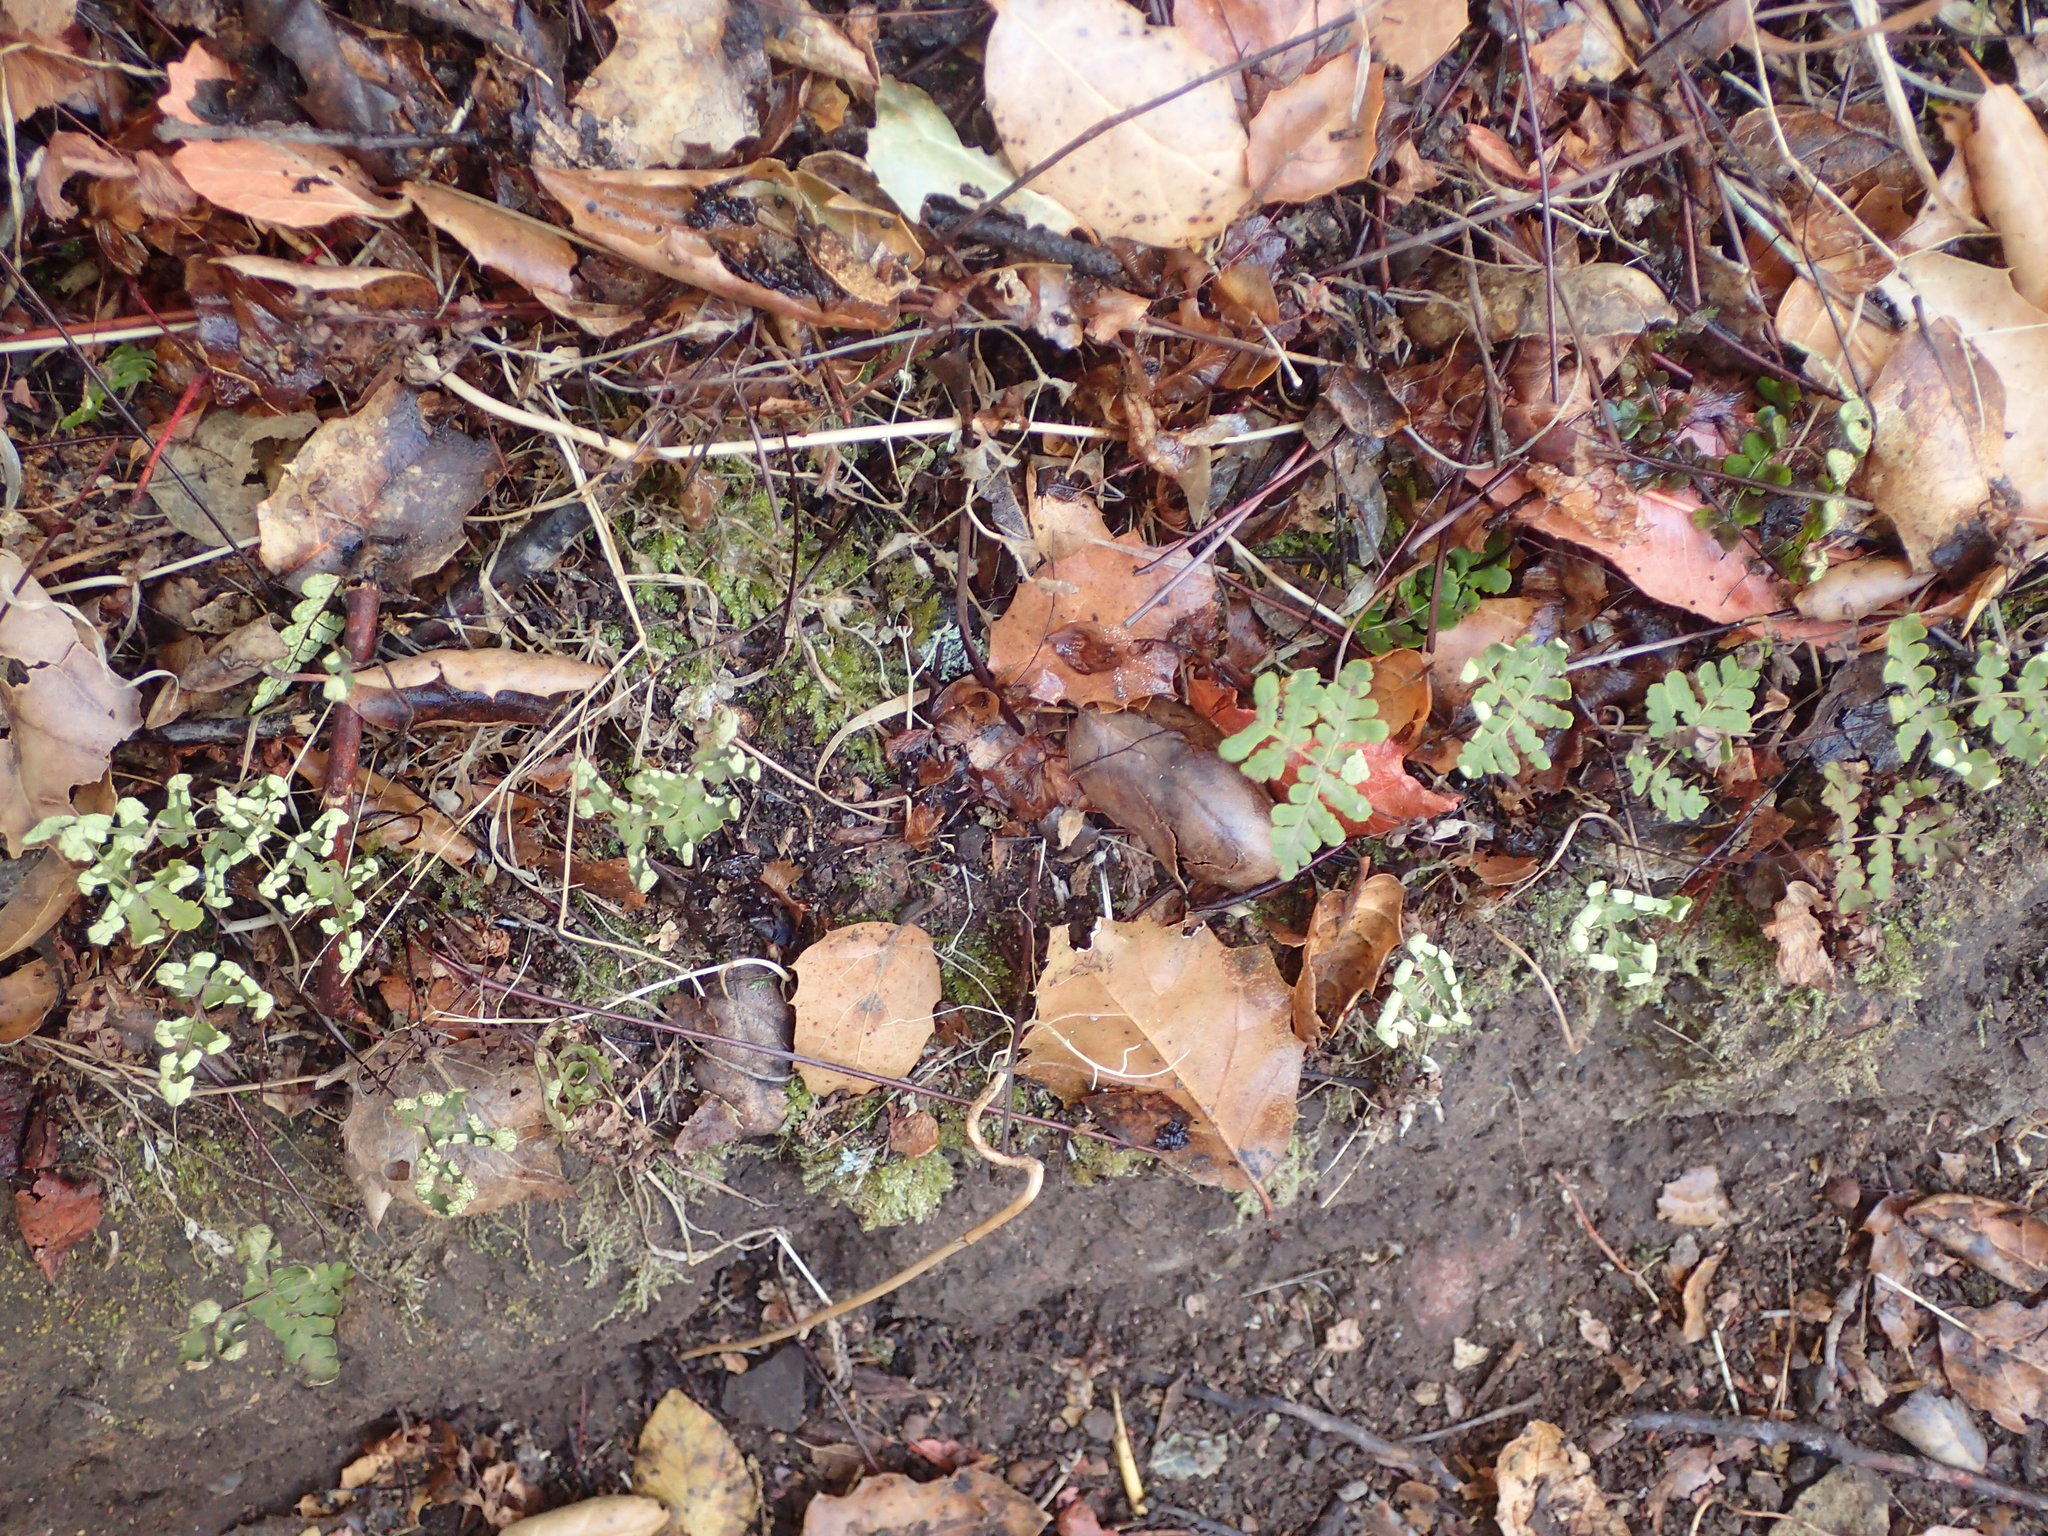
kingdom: Plantae
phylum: Tracheophyta
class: Polypodiopsida
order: Polypodiales
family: Pteridaceae
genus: Pentagramma
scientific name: Pentagramma triangularis
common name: Gold fern
